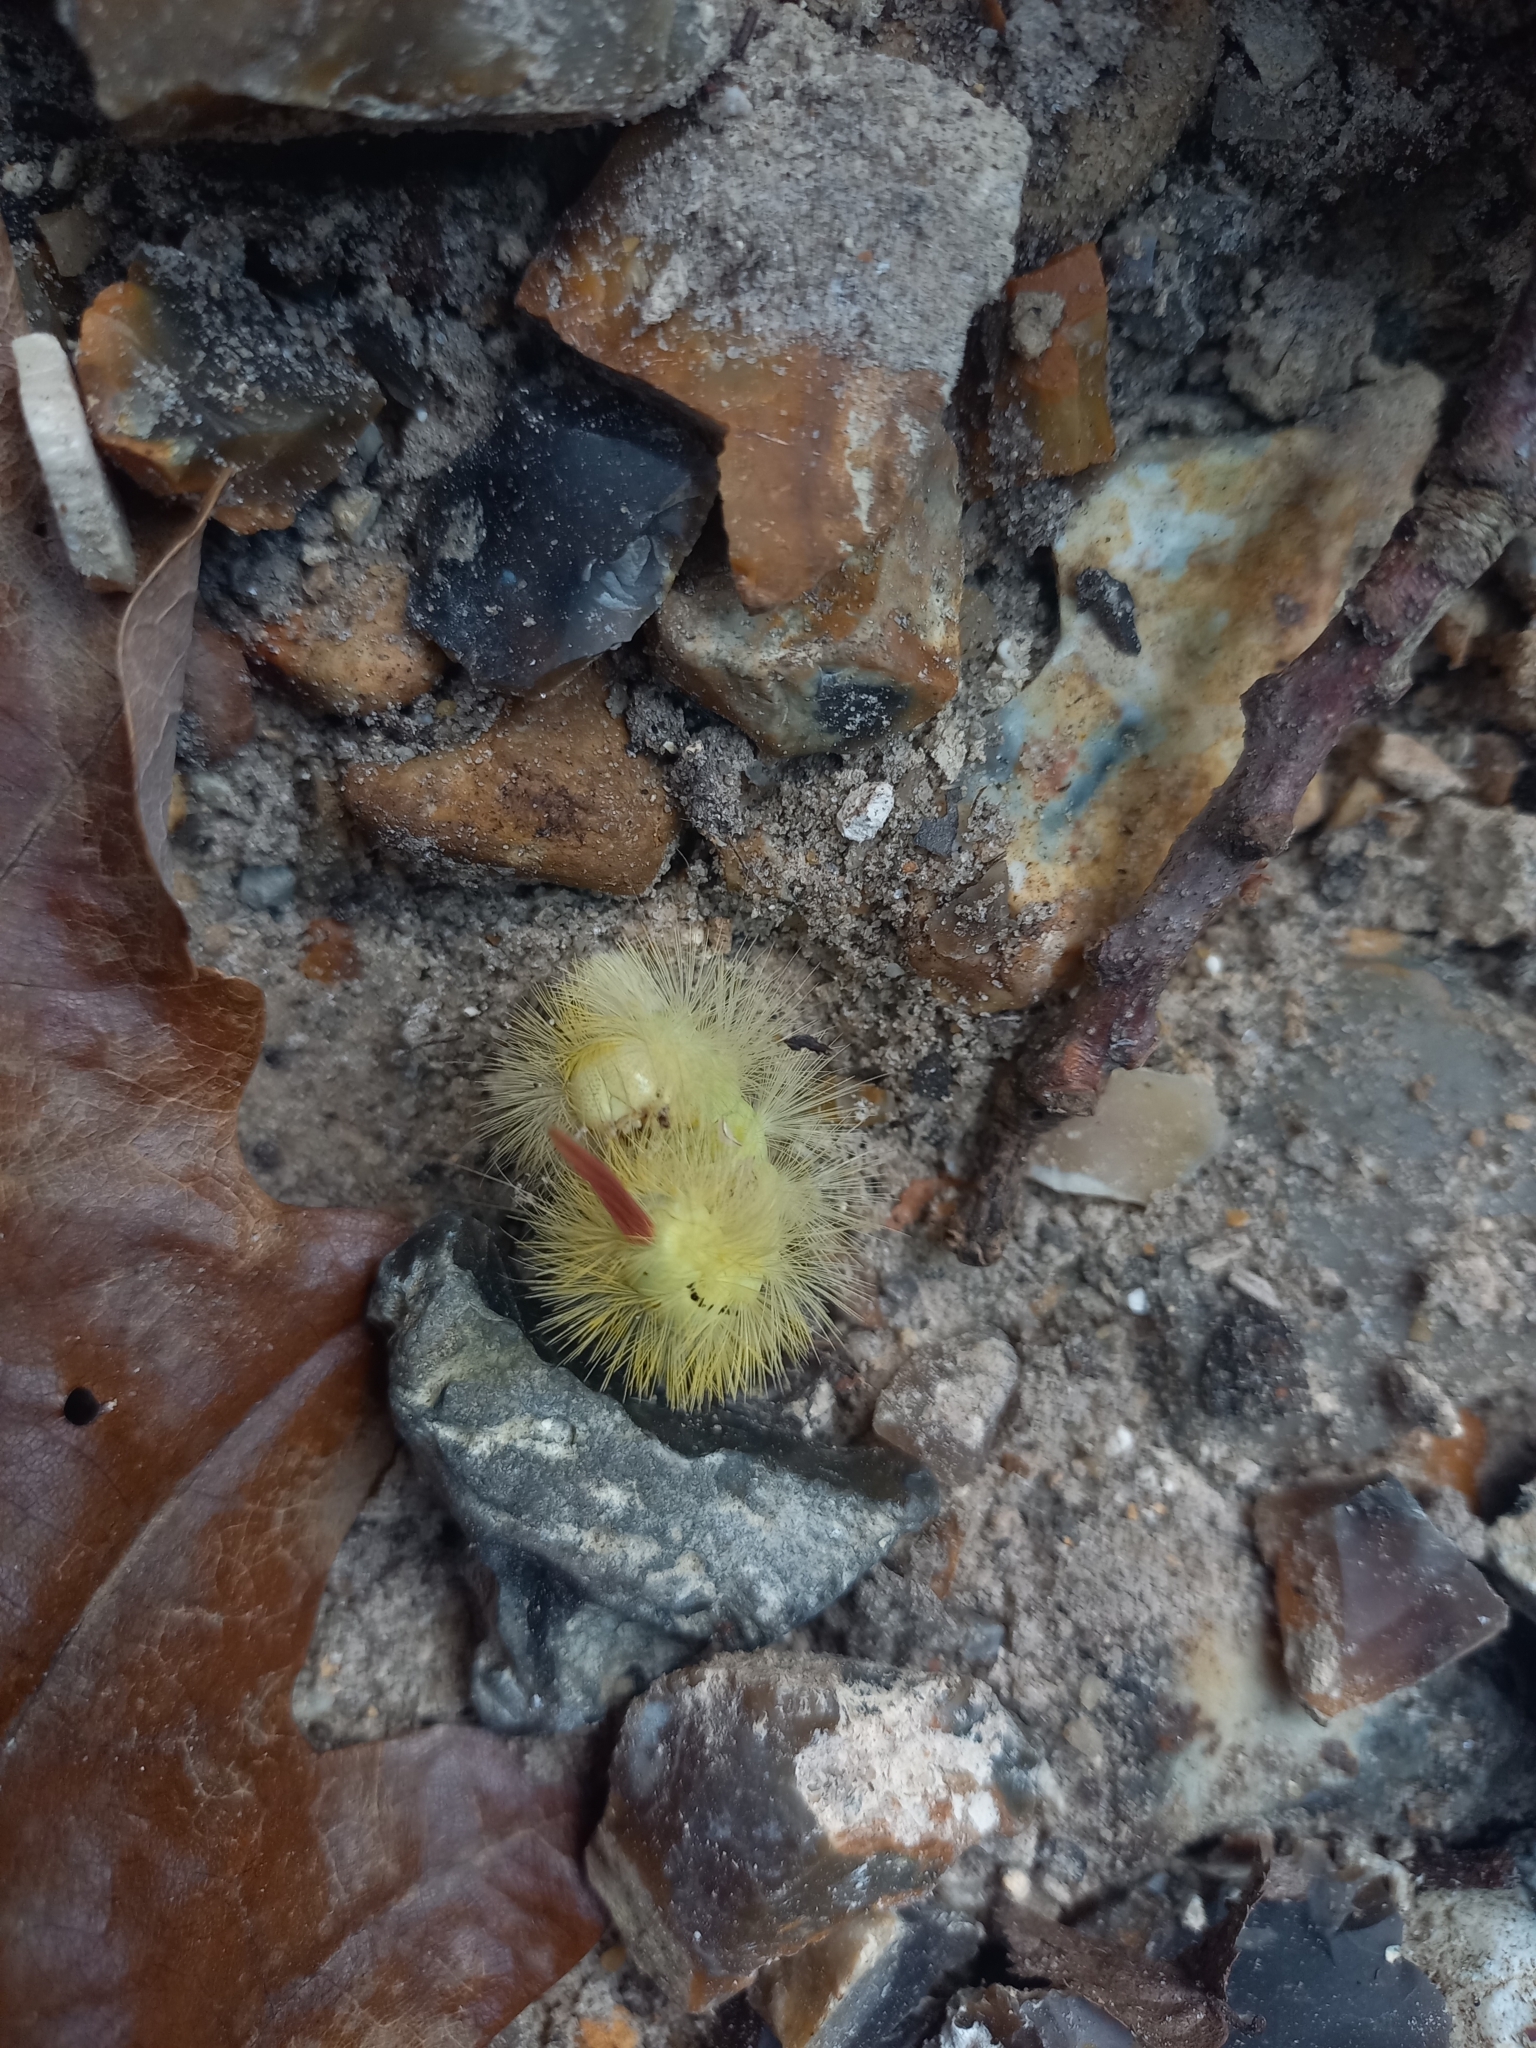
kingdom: Animalia
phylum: Arthropoda
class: Insecta
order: Lepidoptera
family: Erebidae
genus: Calliteara
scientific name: Calliteara pudibunda
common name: Pale tussock
